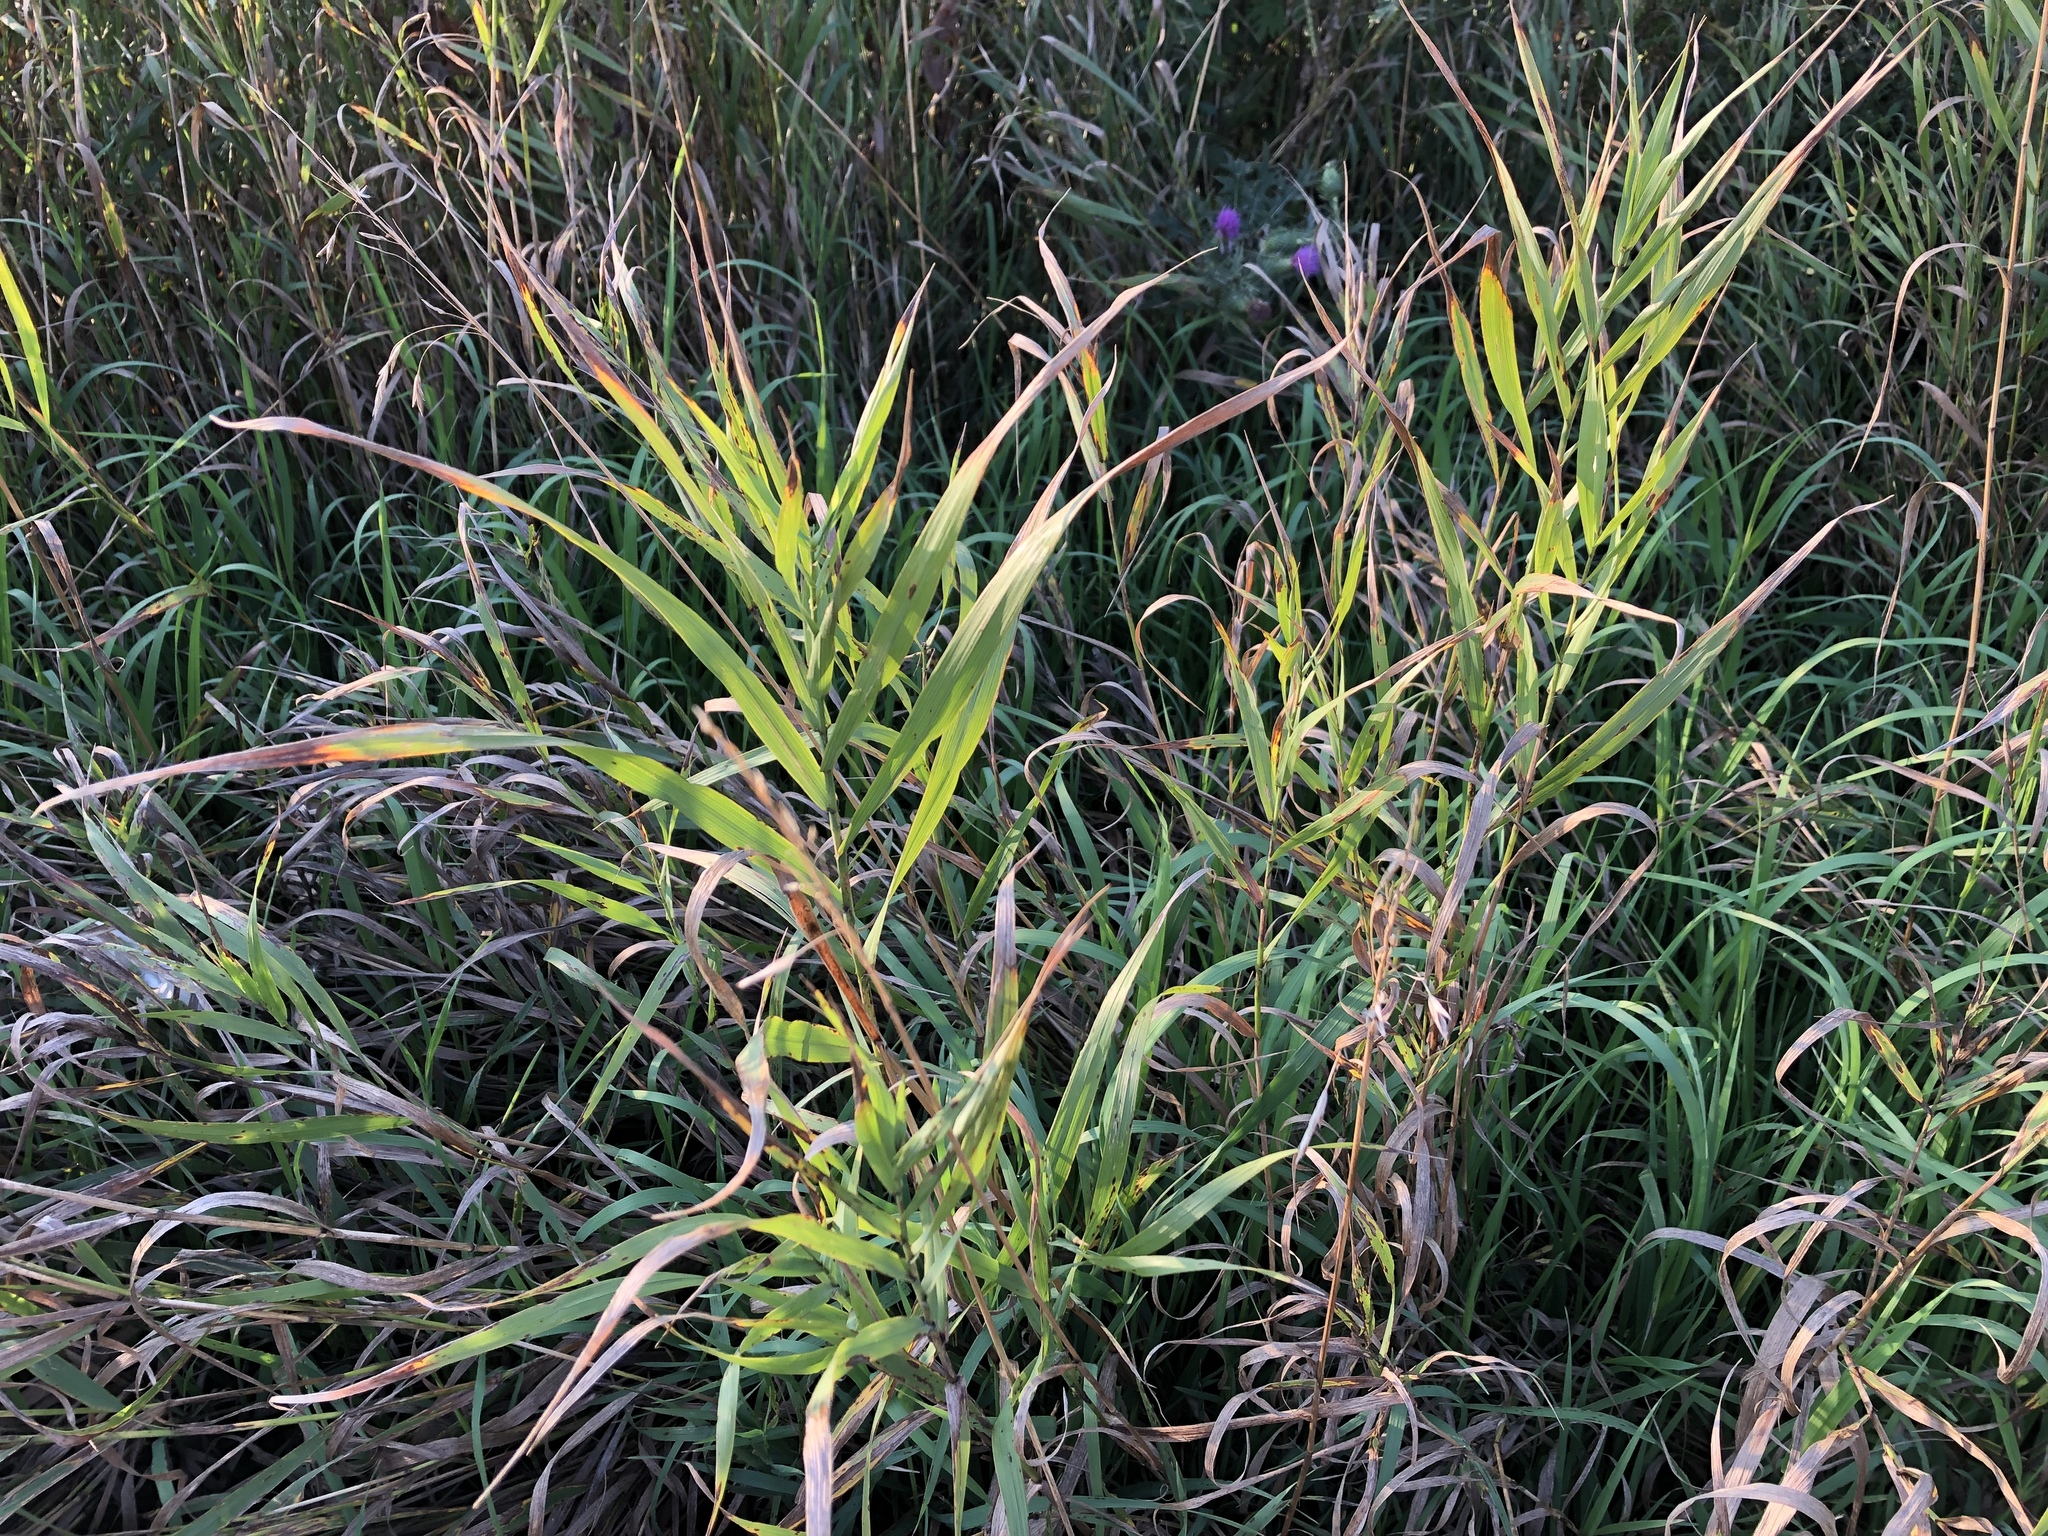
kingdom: Plantae
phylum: Tracheophyta
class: Liliopsida
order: Poales
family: Poaceae
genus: Phragmites
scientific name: Phragmites australis
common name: Common reed
